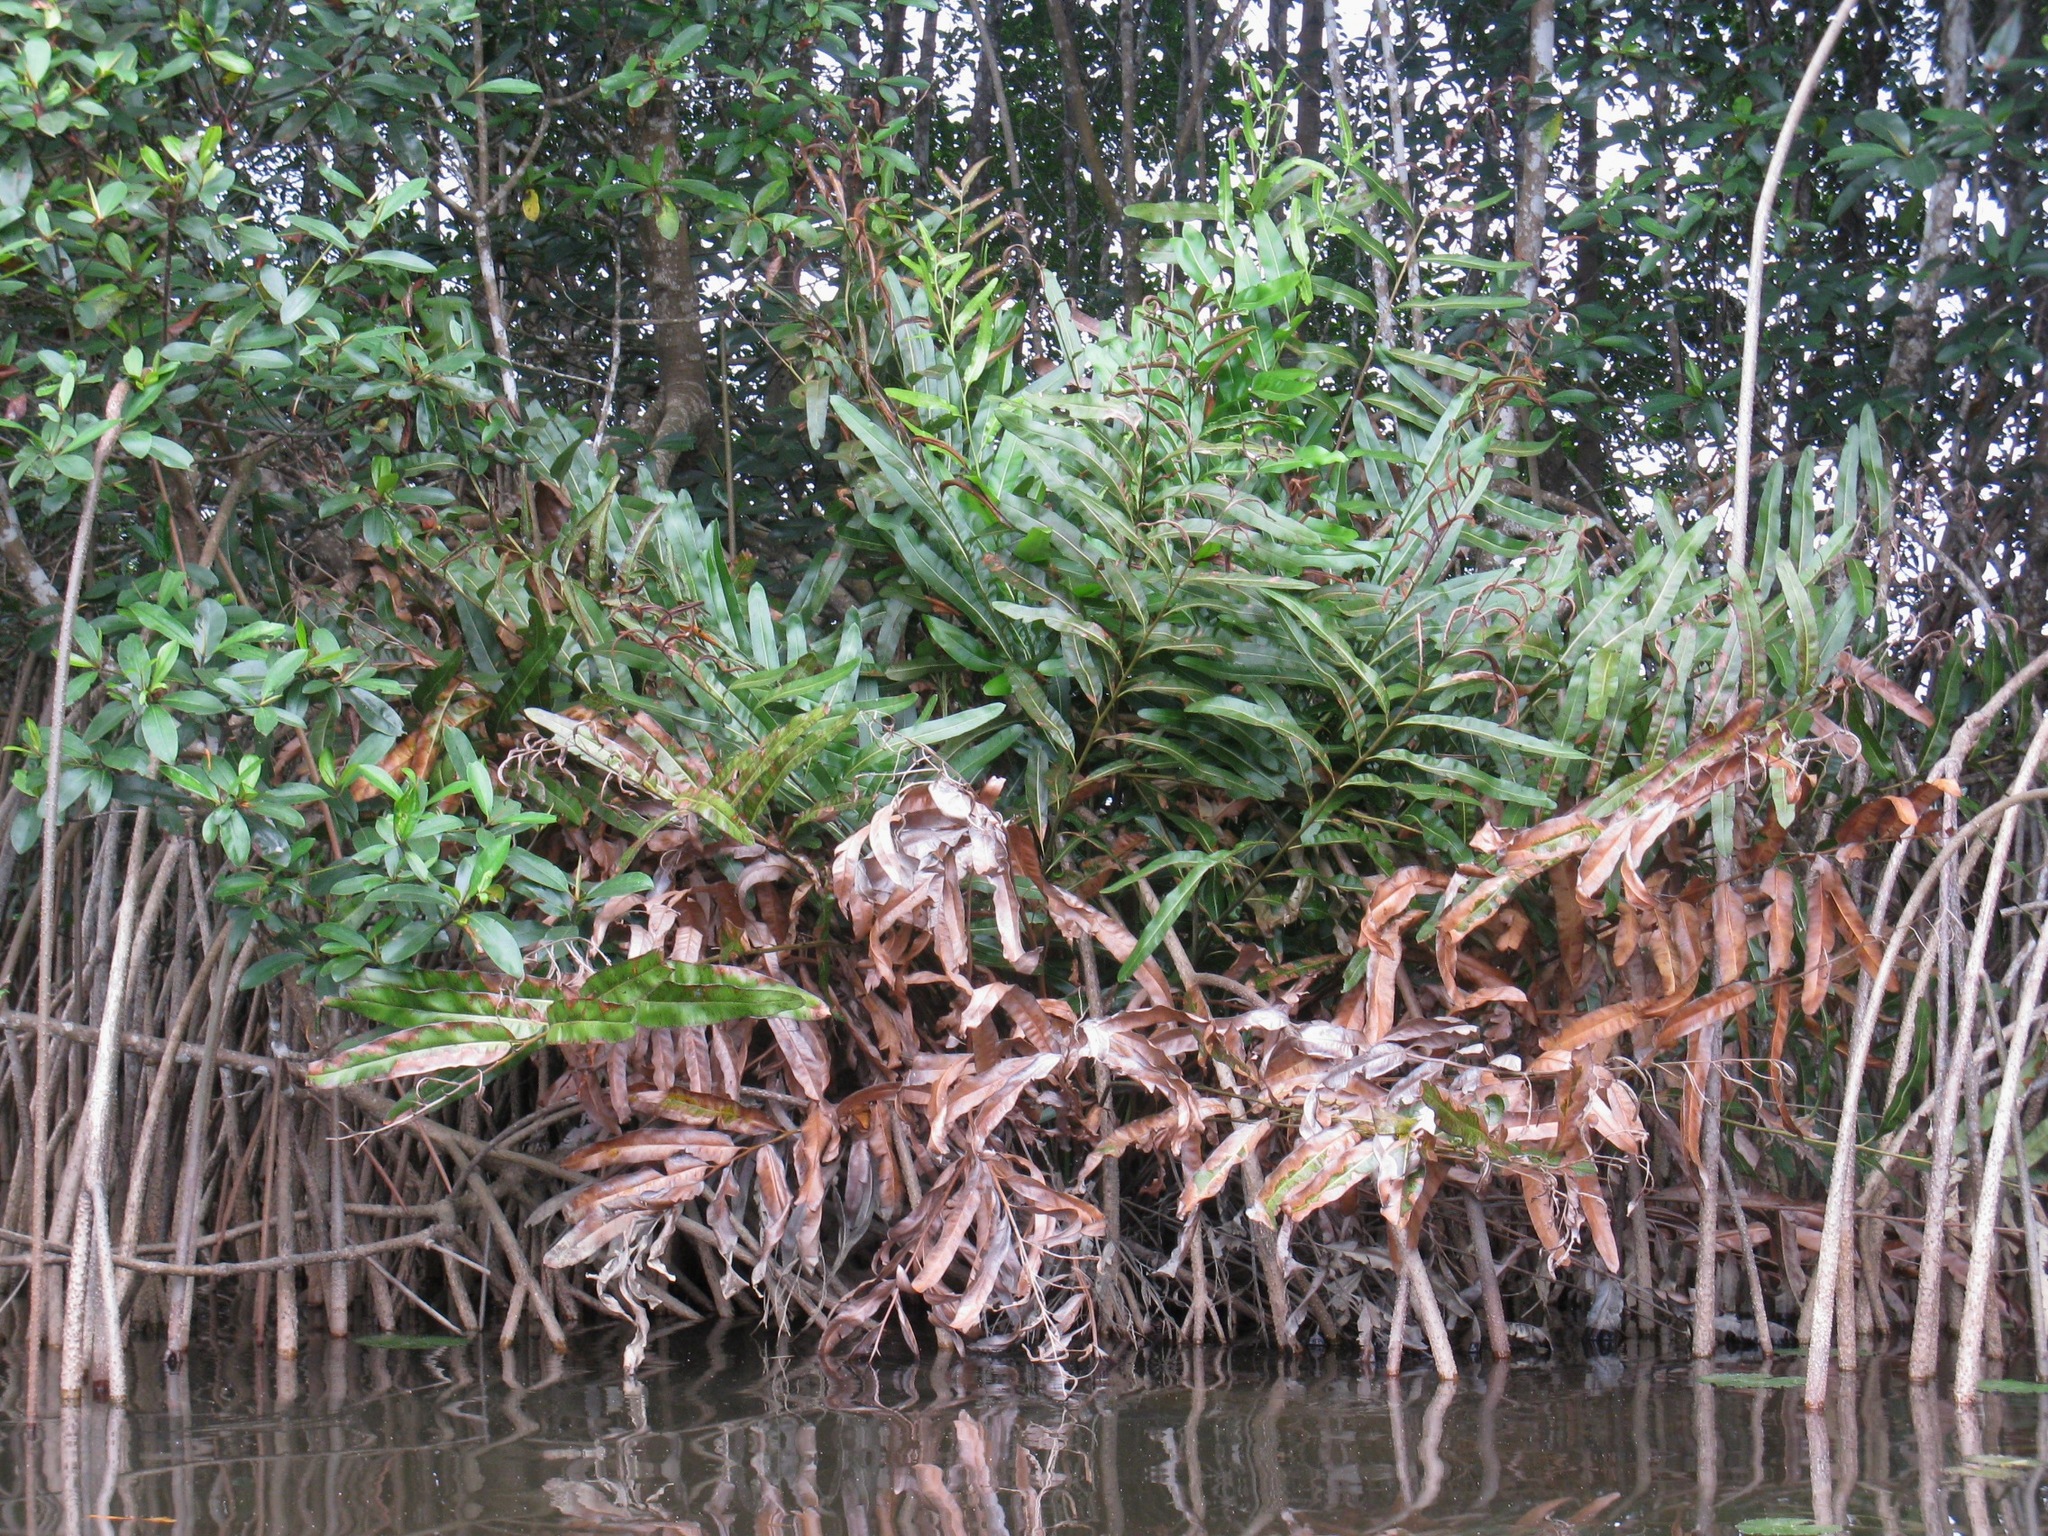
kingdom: Plantae
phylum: Tracheophyta
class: Polypodiopsida
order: Polypodiales
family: Pteridaceae
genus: Acrostichum
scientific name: Acrostichum aureum
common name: Leather fern
